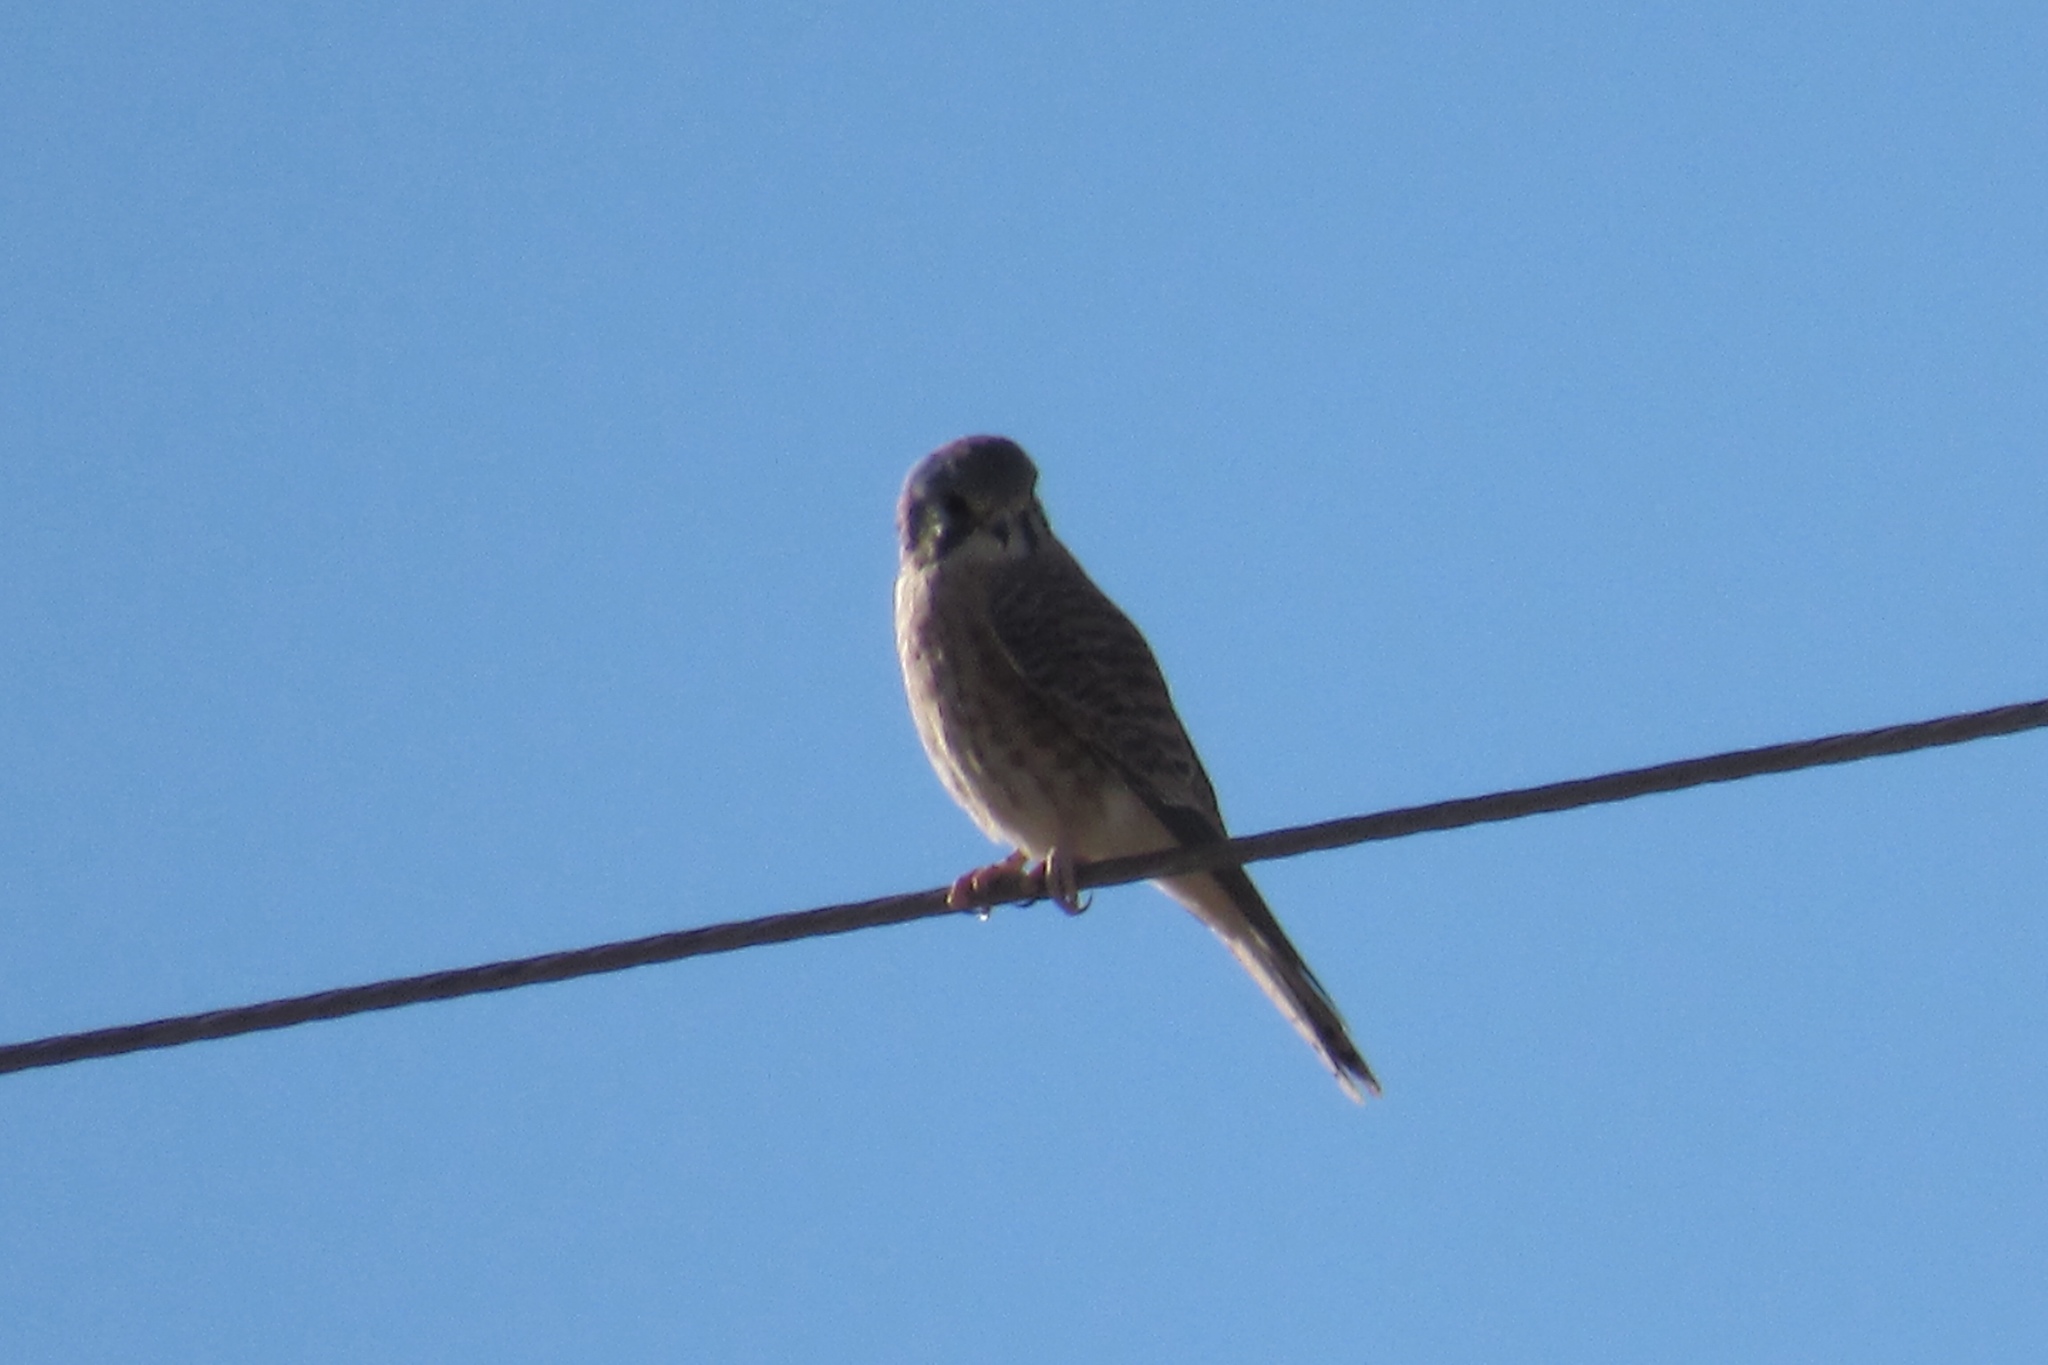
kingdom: Animalia
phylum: Chordata
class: Aves
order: Falconiformes
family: Falconidae
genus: Falco
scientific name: Falco sparverius
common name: American kestrel
